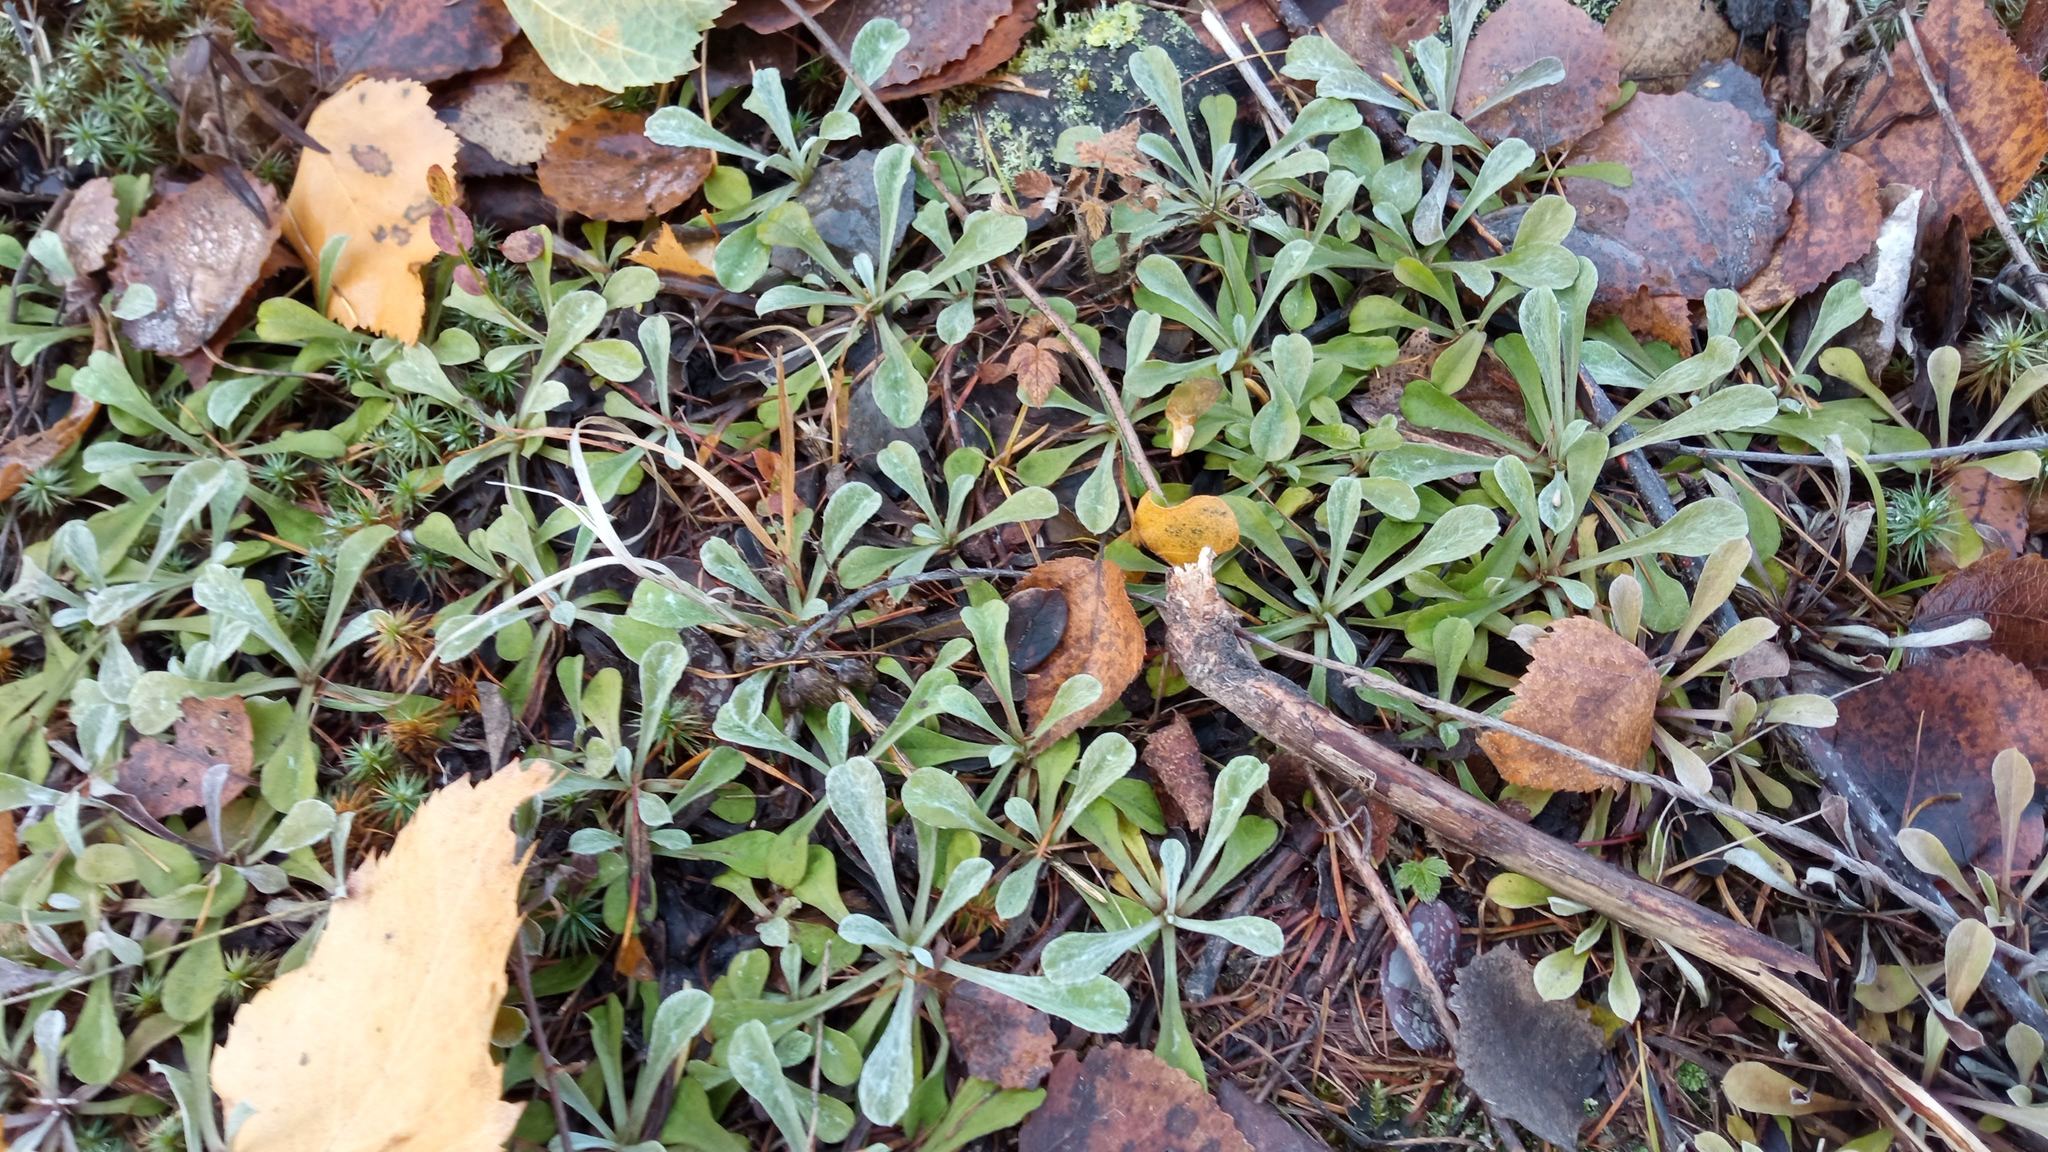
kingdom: Plantae
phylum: Tracheophyta
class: Magnoliopsida
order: Asterales
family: Asteraceae
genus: Antennaria
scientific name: Antennaria dioica
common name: Mountain everlasting
